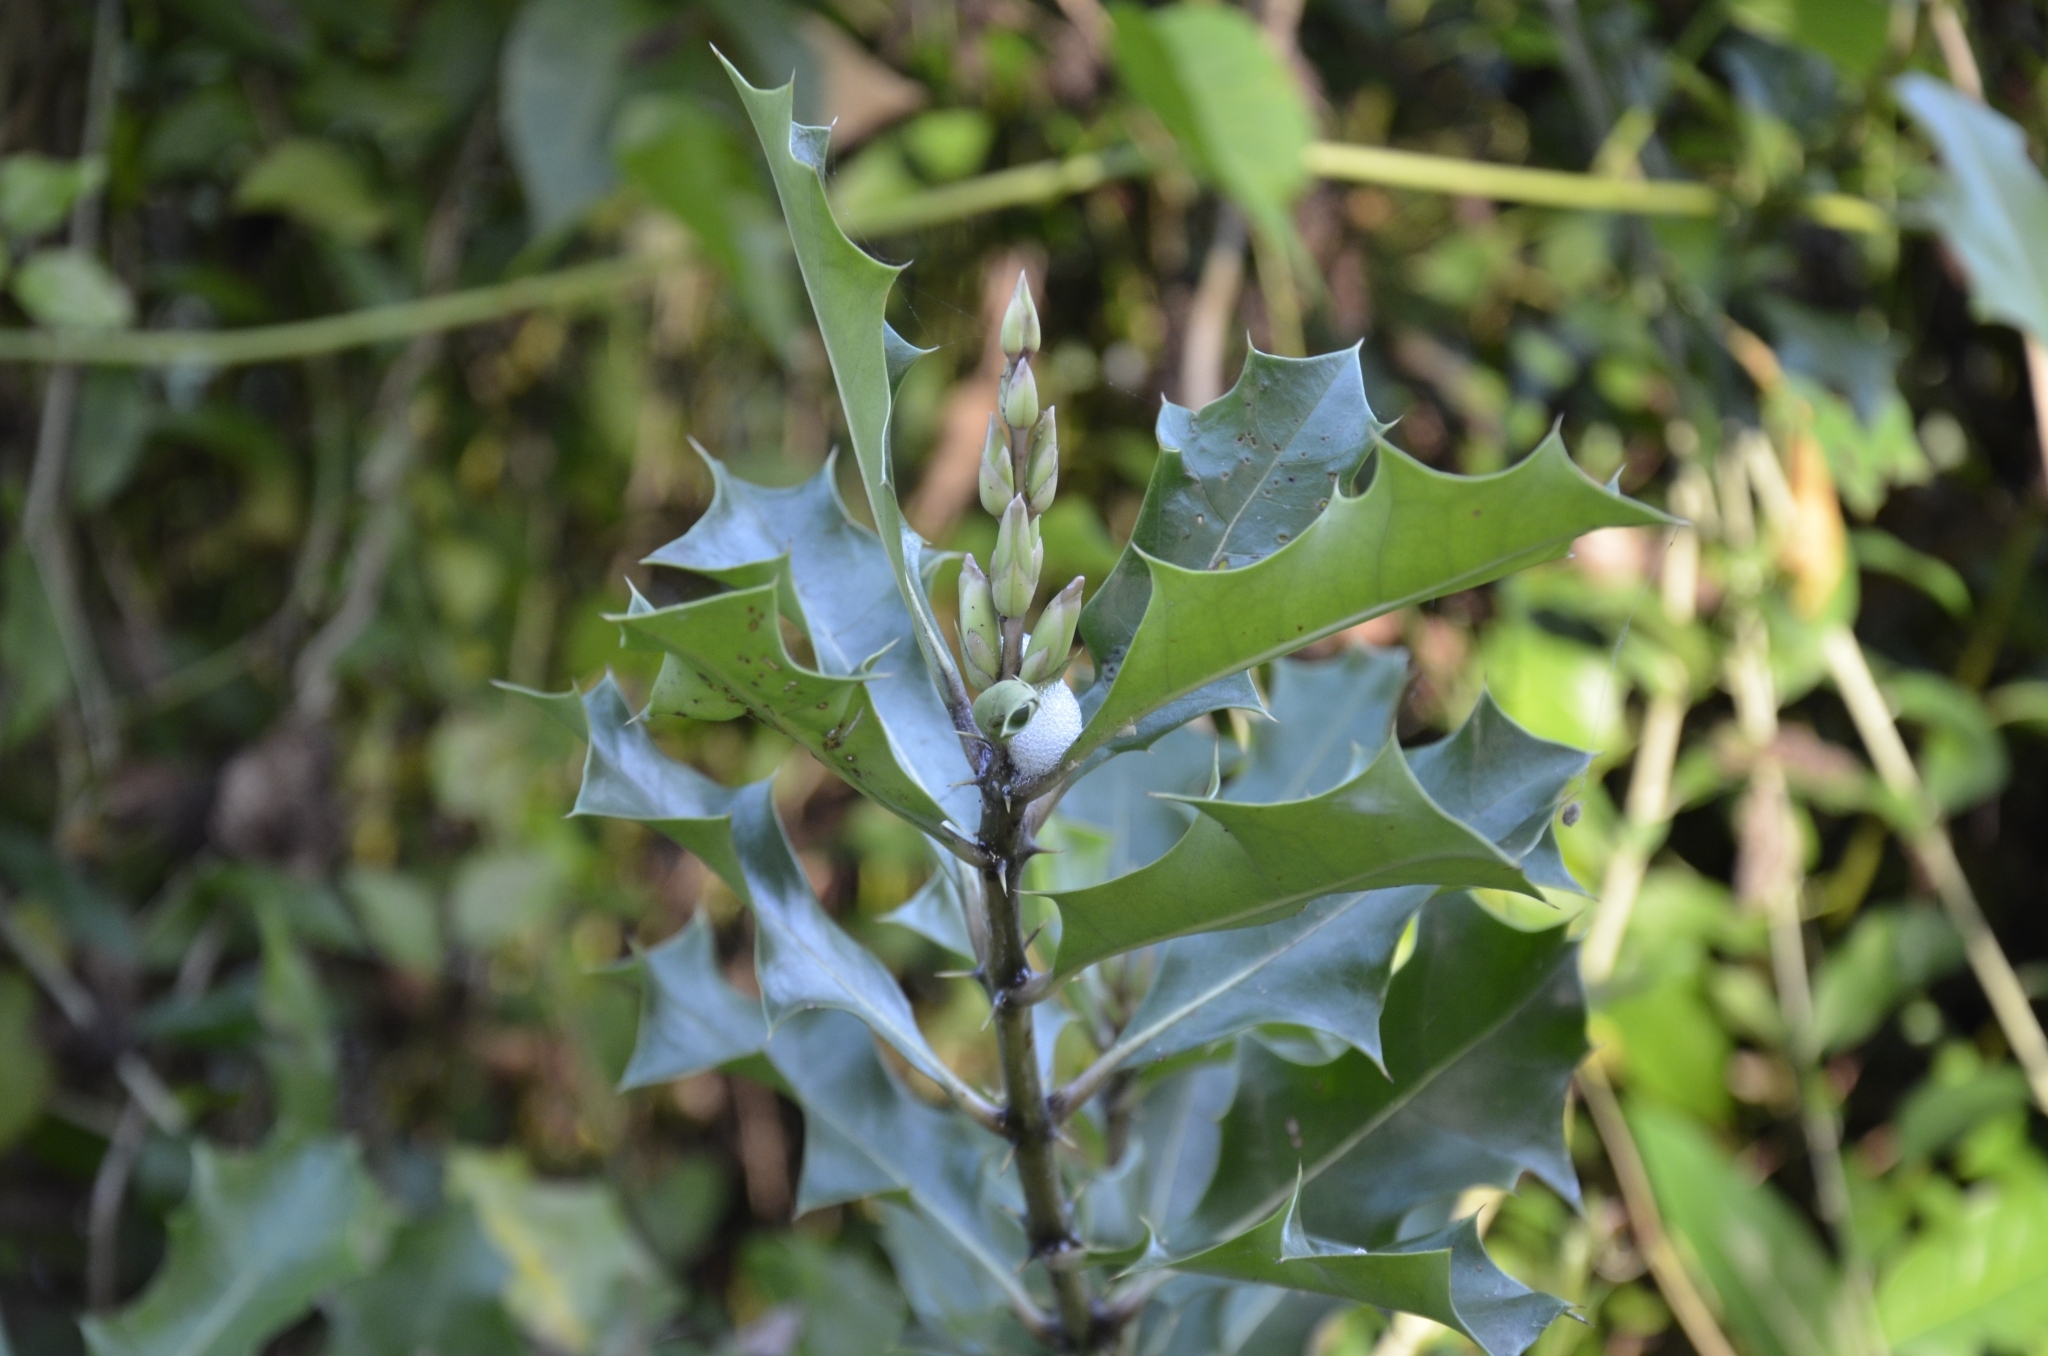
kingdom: Plantae
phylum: Tracheophyta
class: Magnoliopsida
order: Lamiales
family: Acanthaceae
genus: Acanthus
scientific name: Acanthus ilicifolius
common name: Holy mangrove
